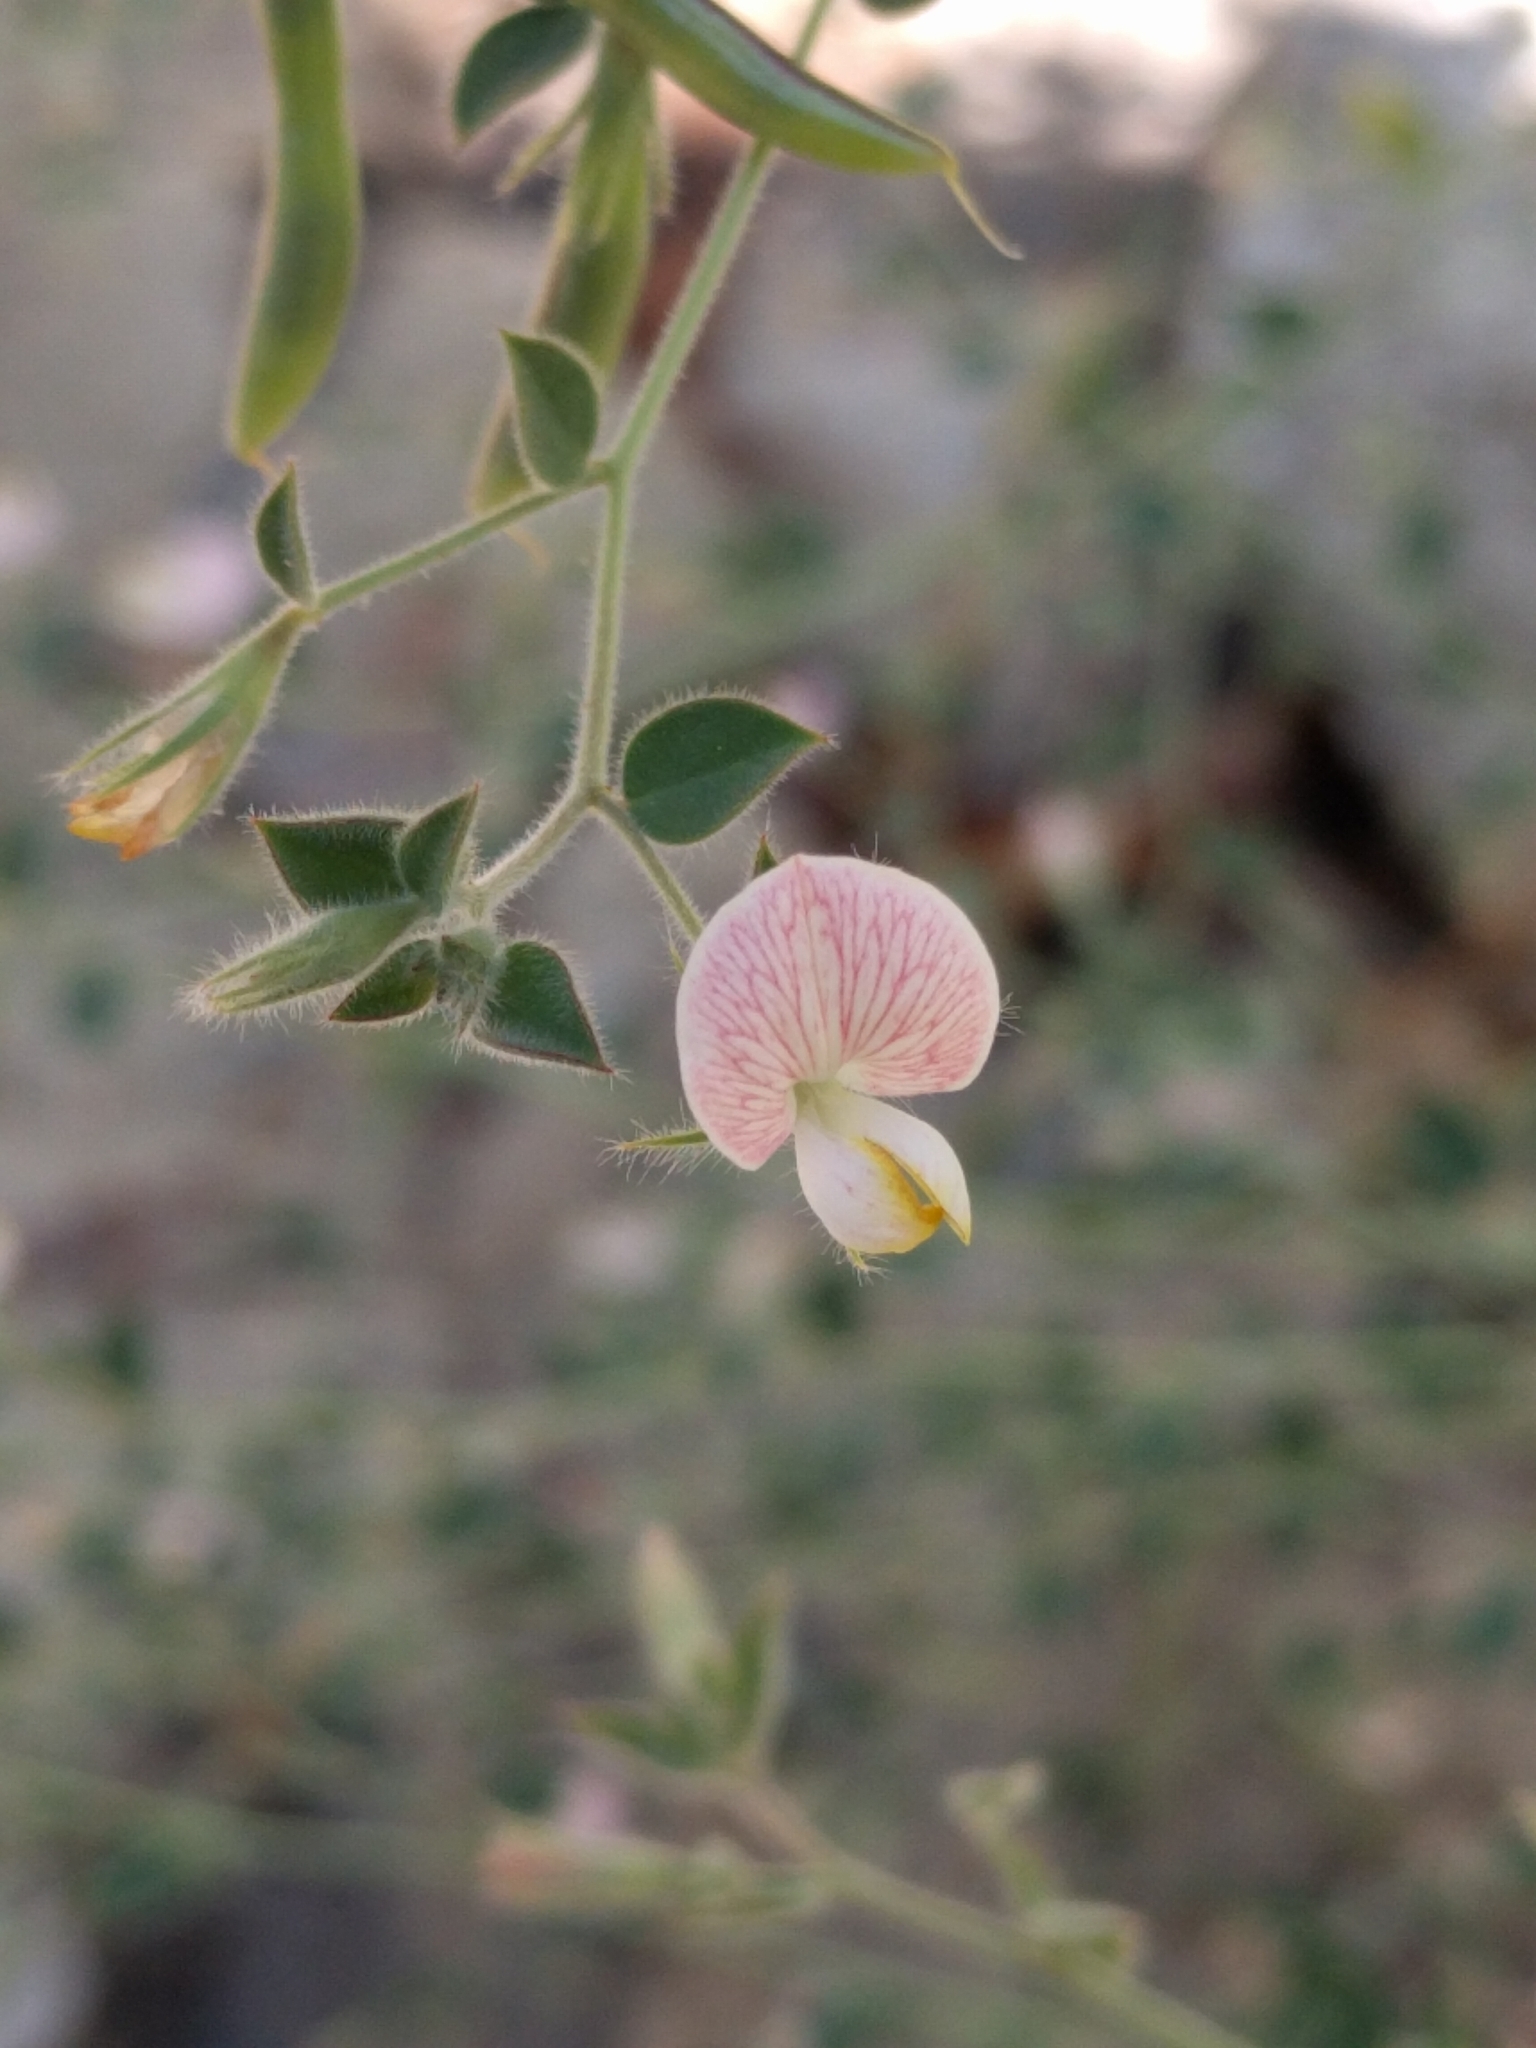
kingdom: Plantae
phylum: Tracheophyta
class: Magnoliopsida
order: Fabales
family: Fabaceae
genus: Acmispon
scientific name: Acmispon americanus
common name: American bird's-foot trefoil
